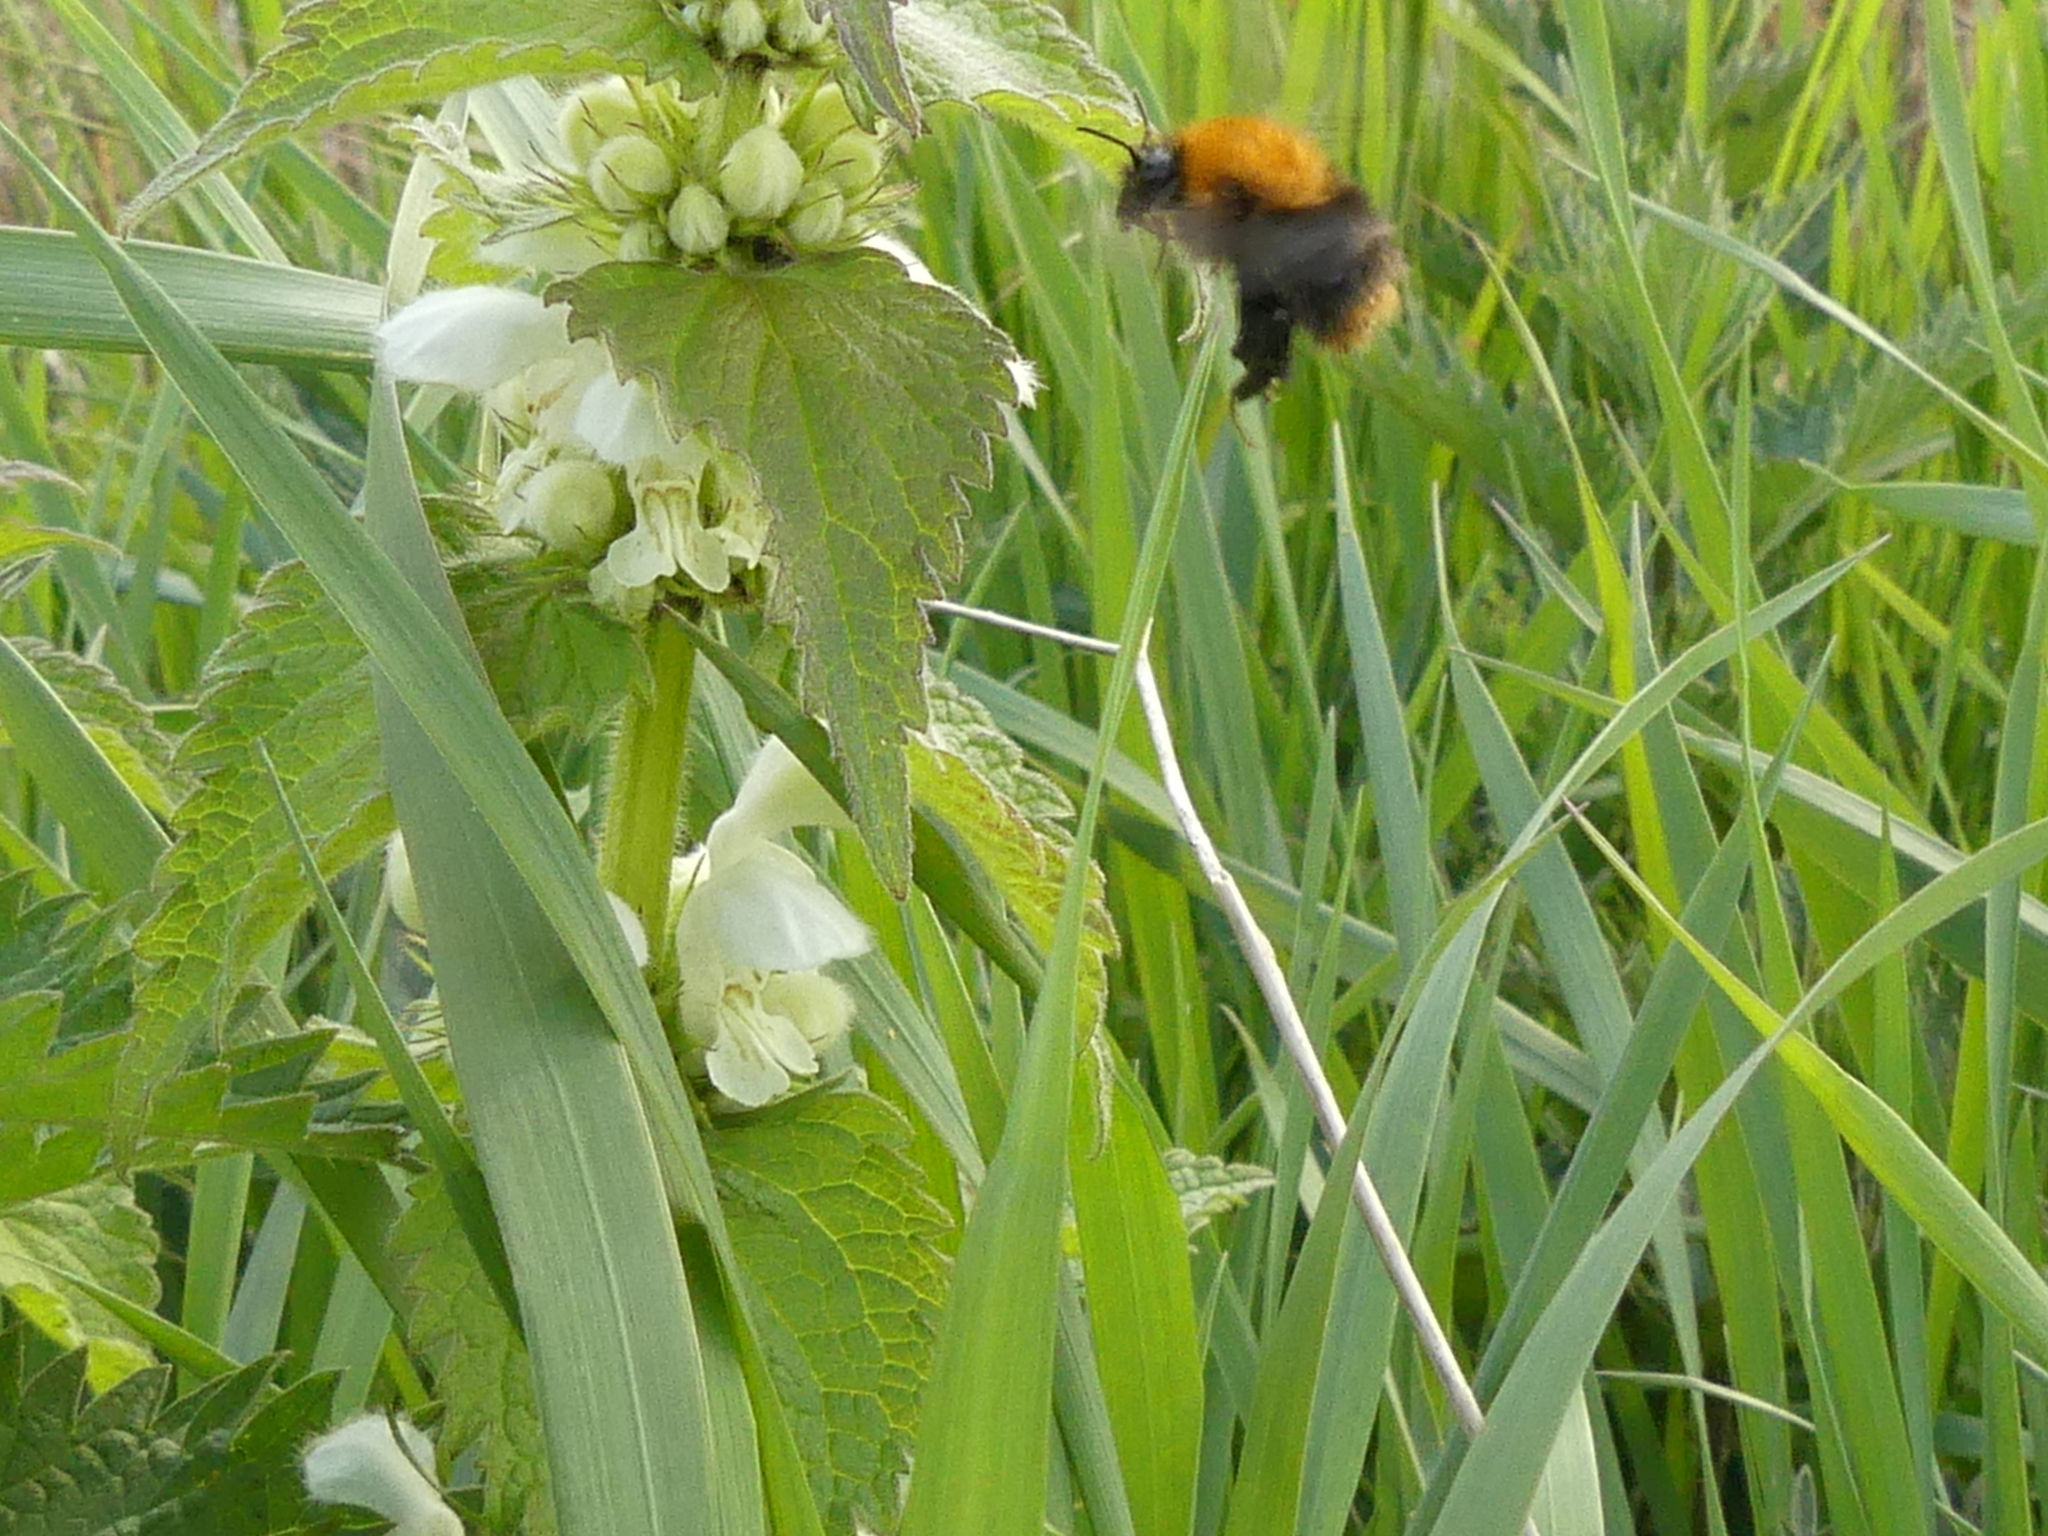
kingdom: Animalia
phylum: Arthropoda
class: Insecta
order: Hymenoptera
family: Apidae
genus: Bombus
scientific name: Bombus pascuorum
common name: Common carder bee
